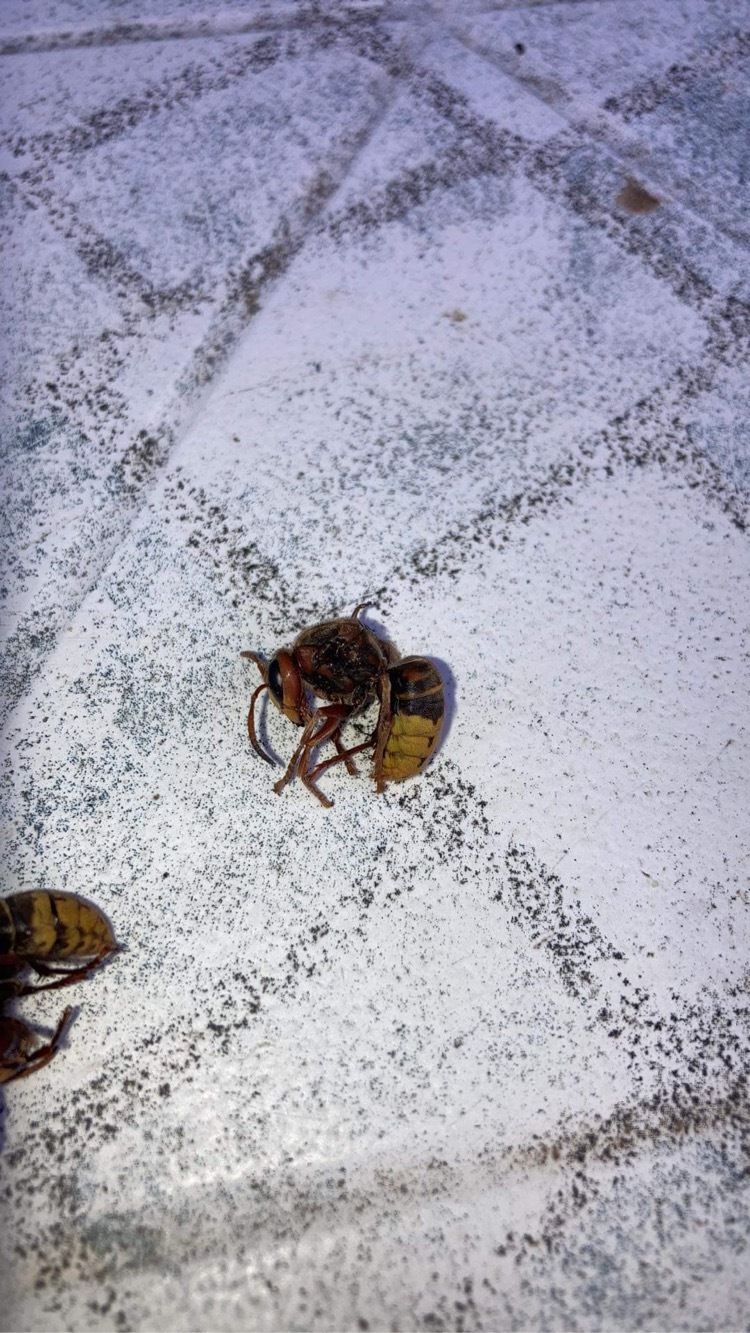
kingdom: Animalia
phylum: Arthropoda
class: Insecta
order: Hymenoptera
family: Vespidae
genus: Vespa
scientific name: Vespa crabro
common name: Hornet
